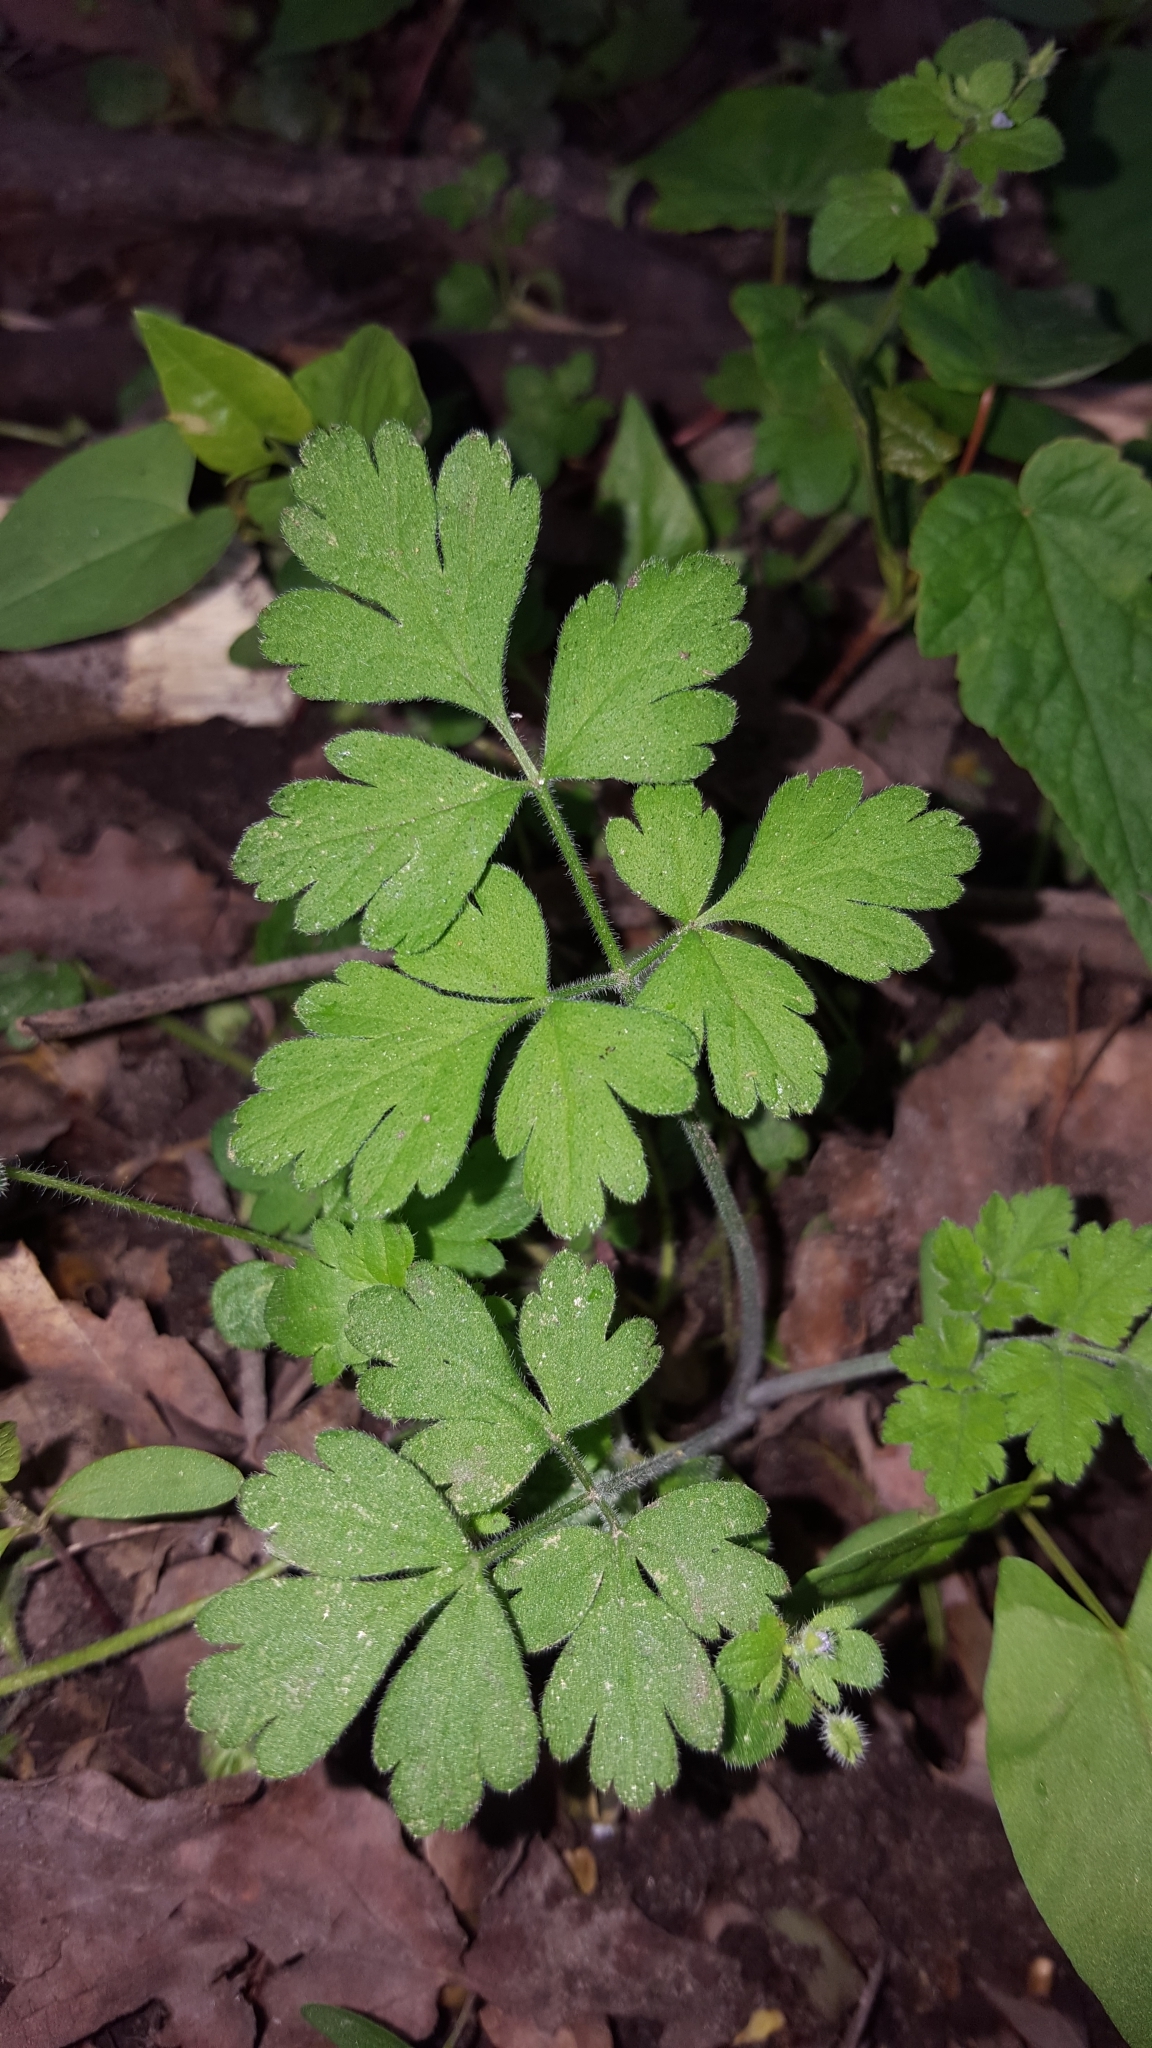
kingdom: Plantae
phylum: Tracheophyta
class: Magnoliopsida
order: Apiales
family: Apiaceae
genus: Chaerophyllum
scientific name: Chaerophyllum temulum
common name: Rough chervil
